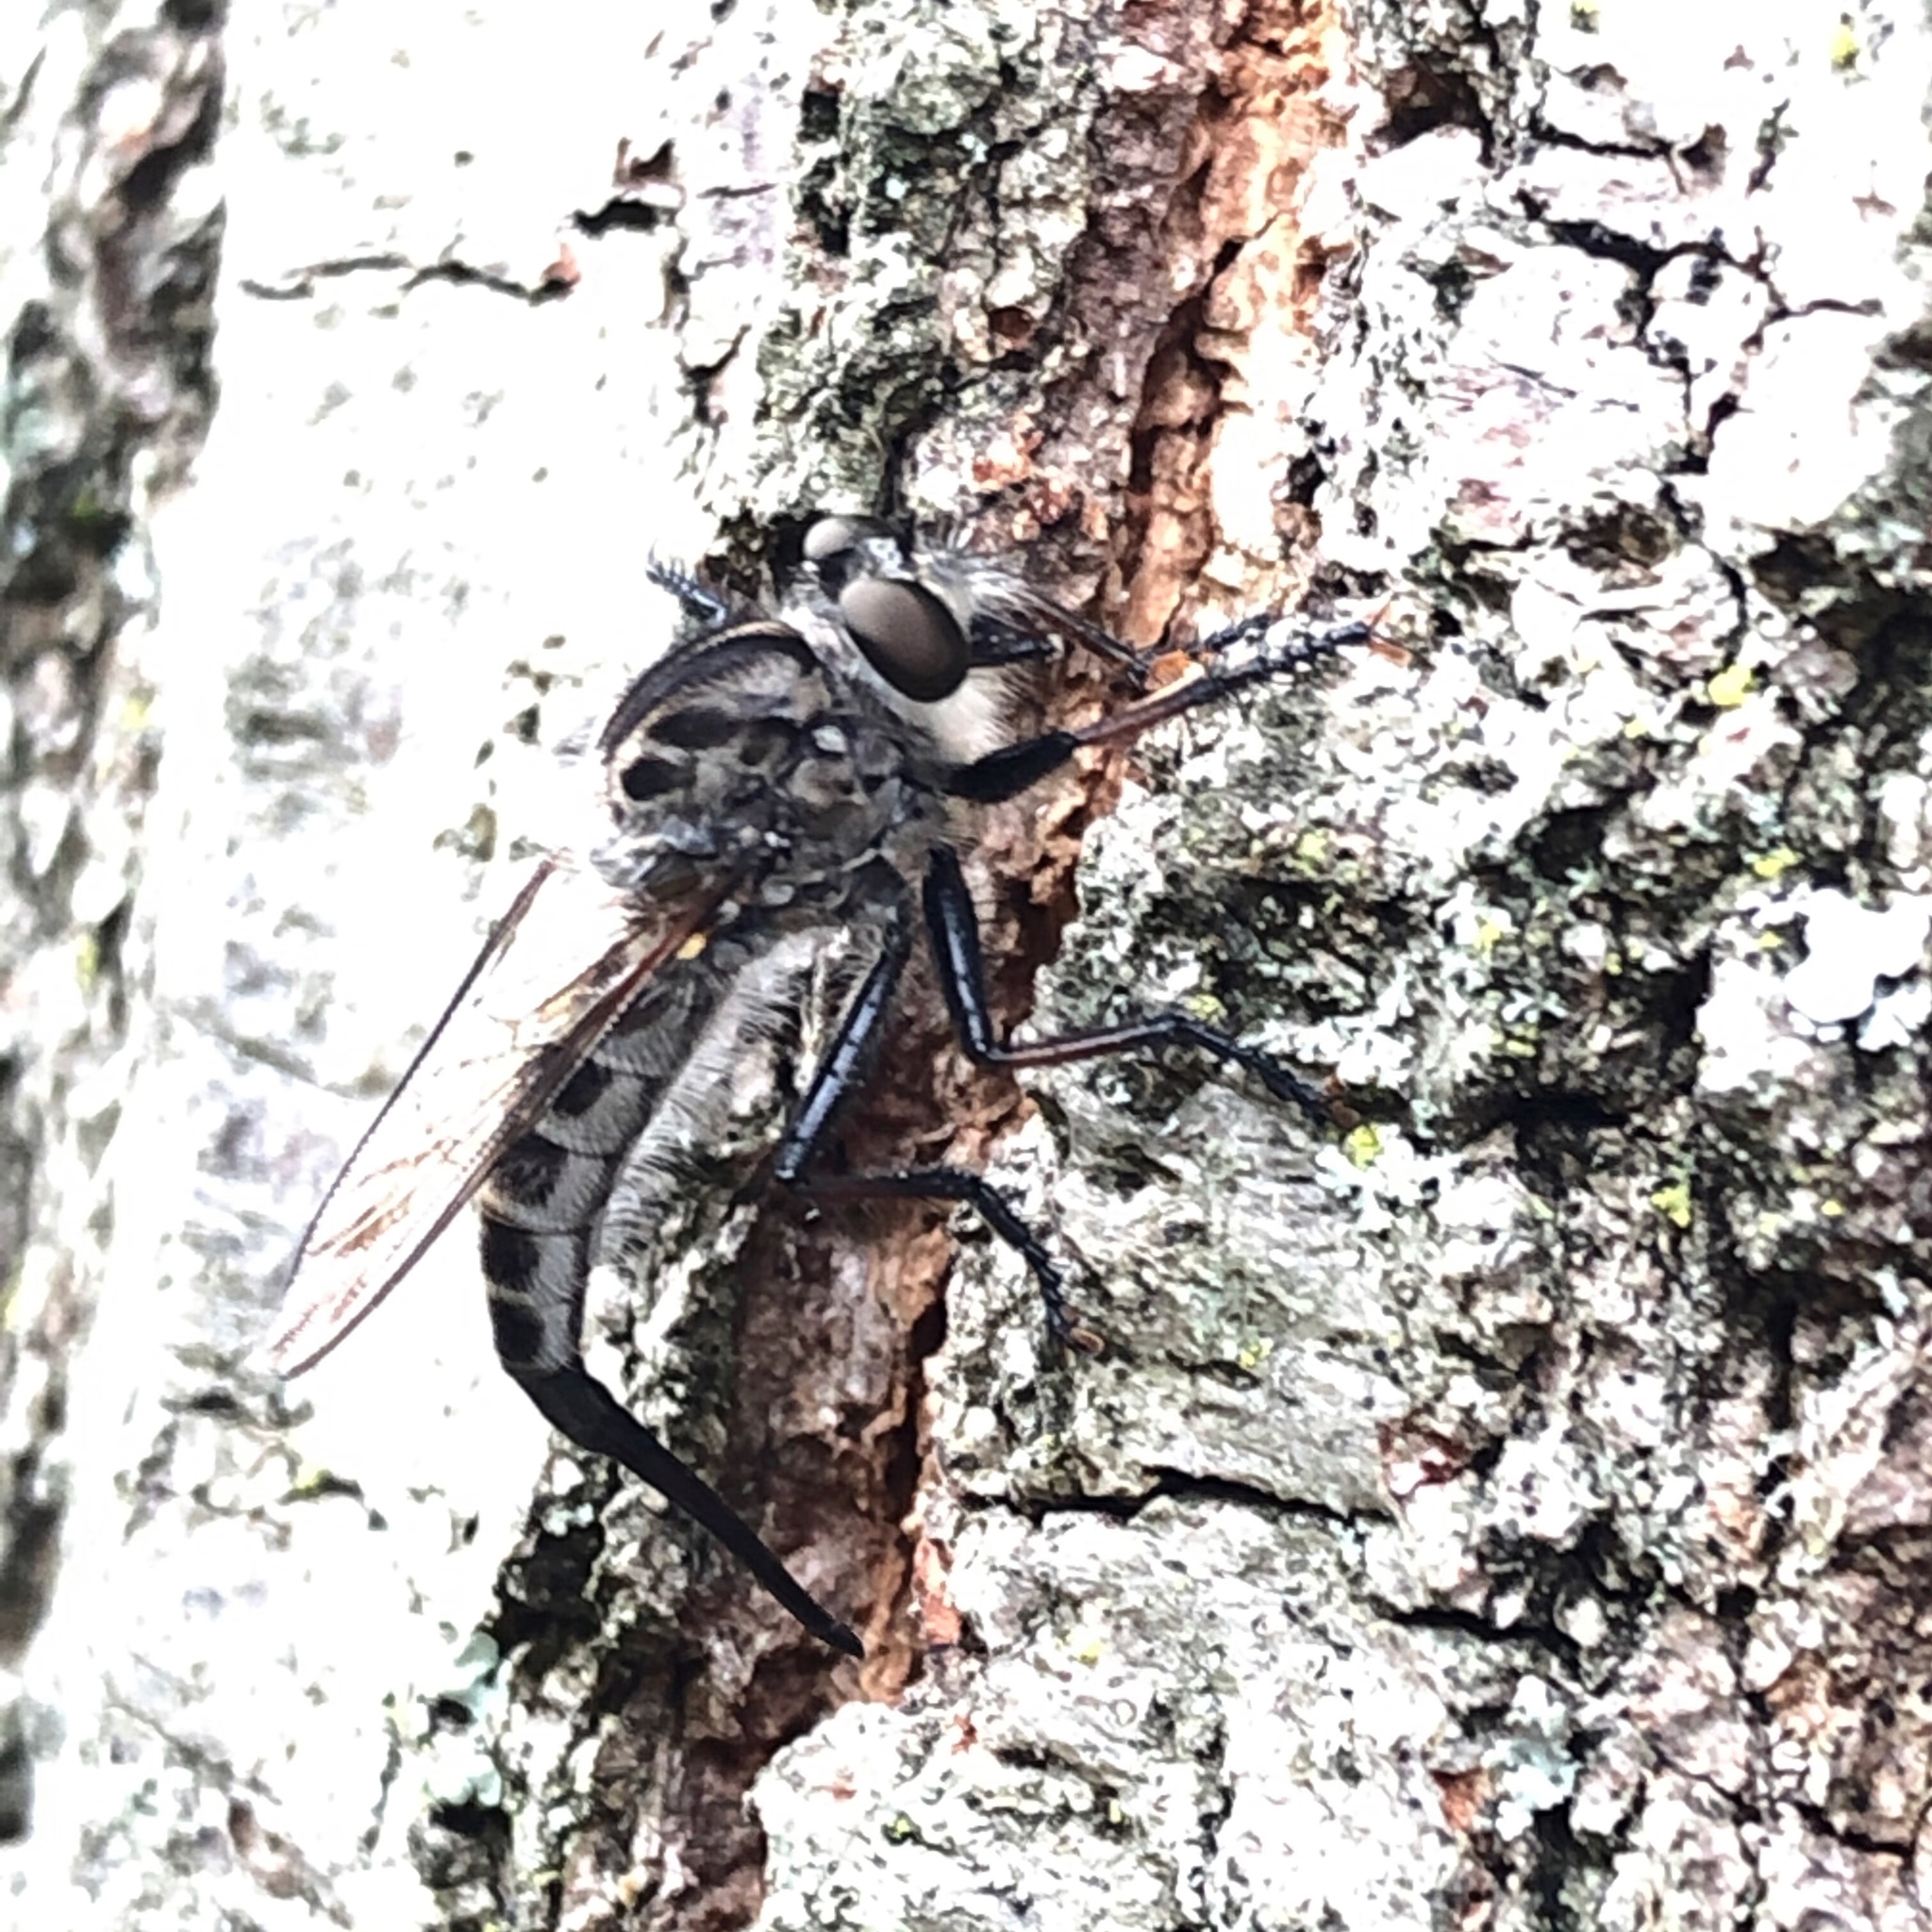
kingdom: Animalia
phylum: Arthropoda
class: Insecta
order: Diptera
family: Asilidae
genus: Efferia
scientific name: Efferia aestuans
